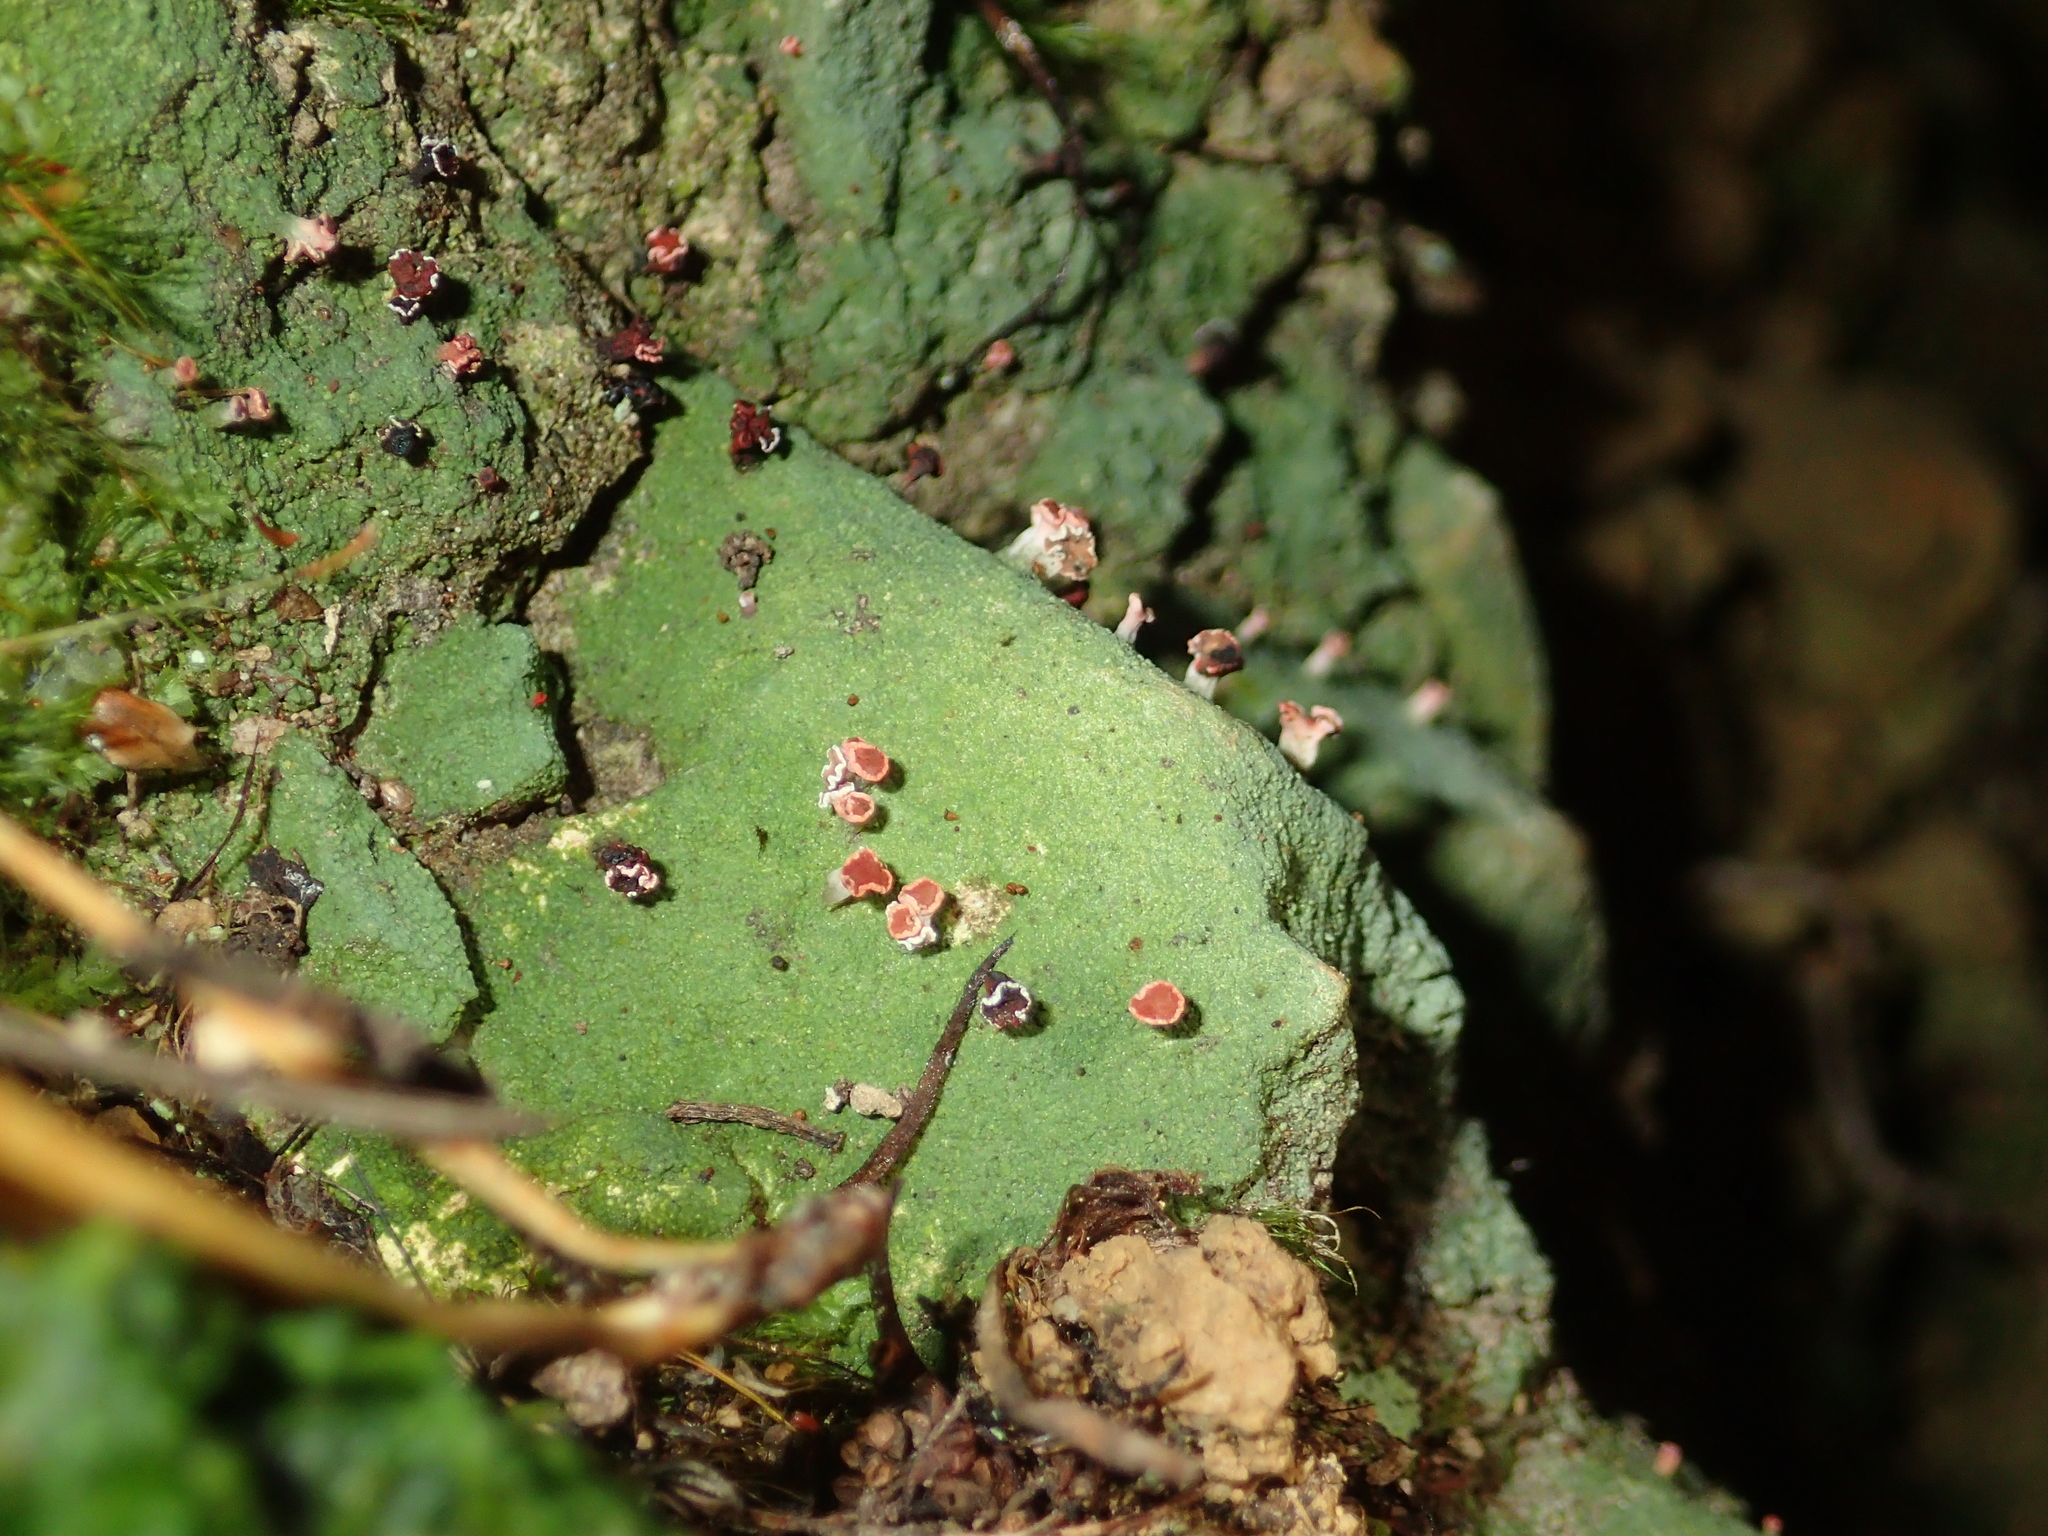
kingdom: Fungi
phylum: Ascomycota
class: Lecanoromycetes
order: Baeomycetales
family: Baeomycetaceae
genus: Baeomyces
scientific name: Baeomyces heteromorphus
